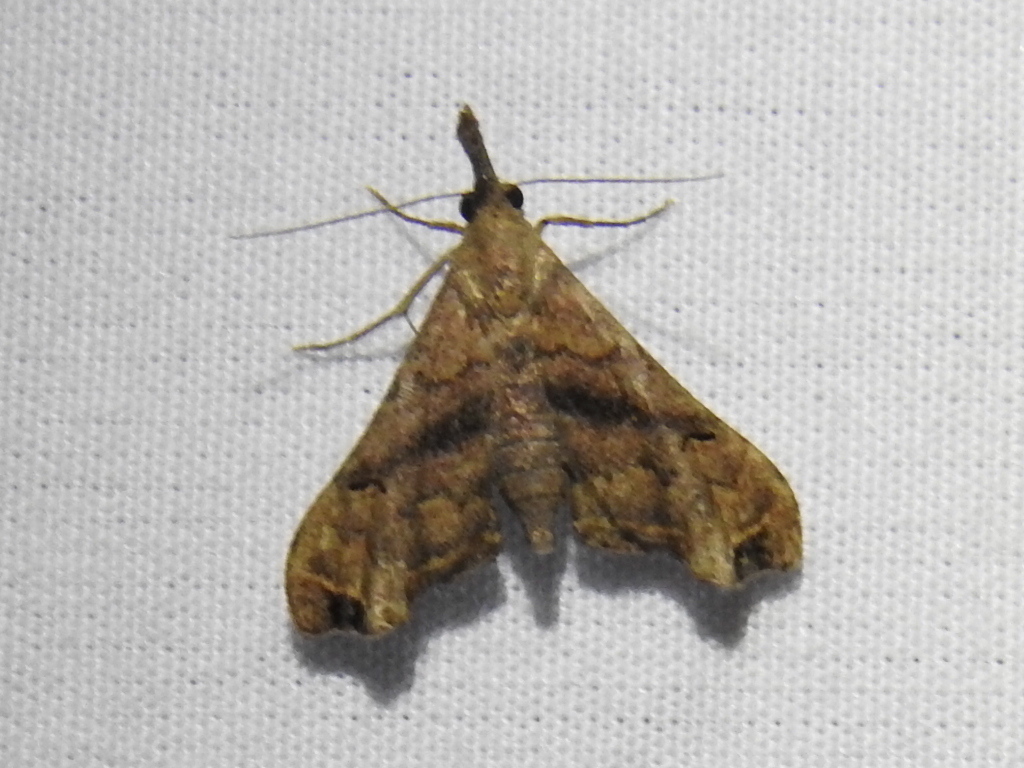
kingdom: Animalia
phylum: Arthropoda
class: Insecta
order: Lepidoptera
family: Erebidae
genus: Palthis
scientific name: Palthis asopialis
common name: Faint-spotted palthis moth
